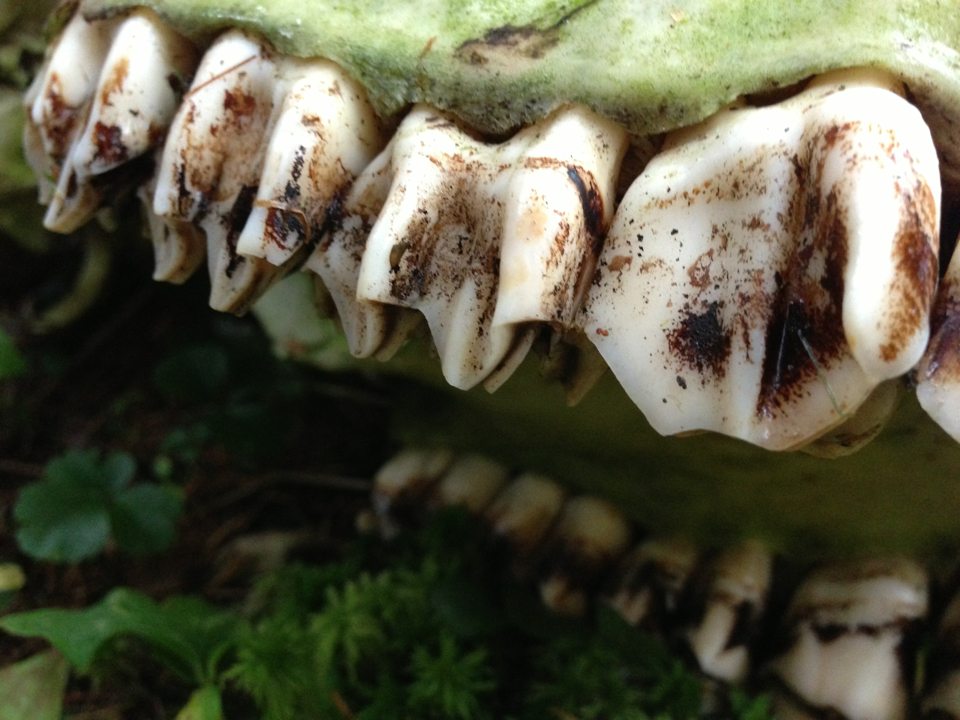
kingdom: Animalia
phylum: Chordata
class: Mammalia
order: Artiodactyla
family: Cervidae
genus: Alces
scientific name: Alces alces
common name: Moose
